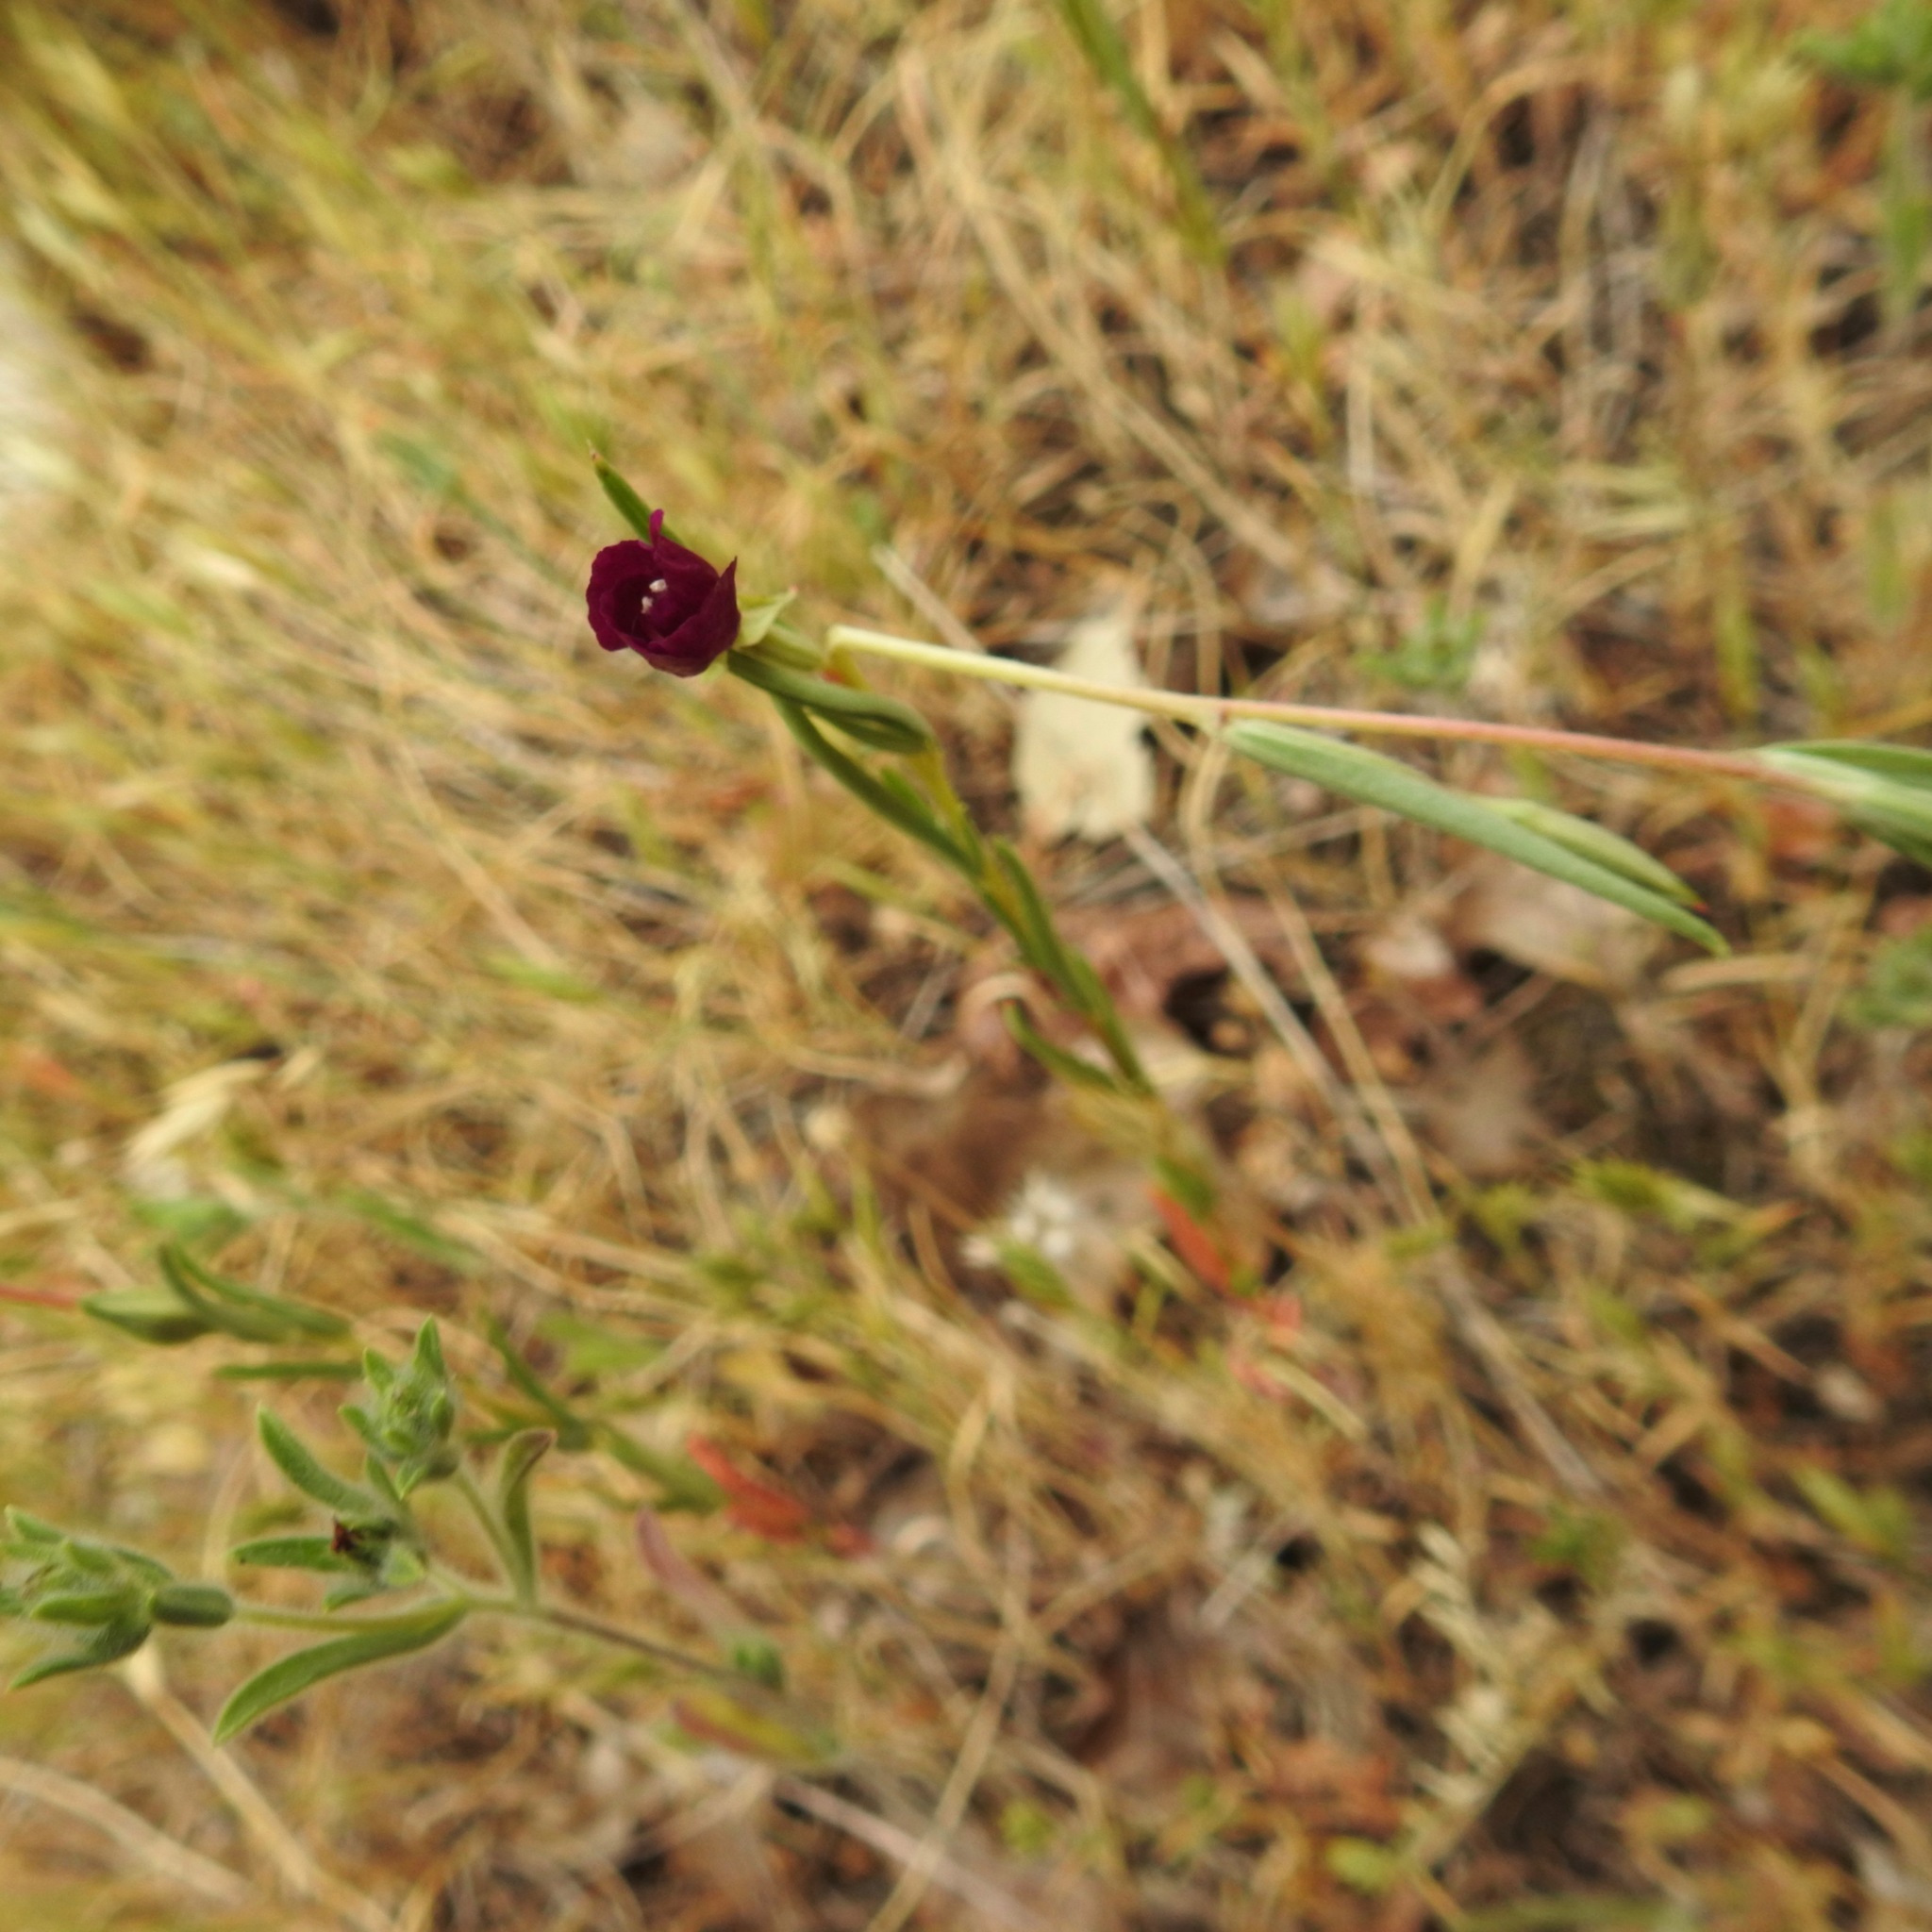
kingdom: Plantae
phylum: Tracheophyta
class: Magnoliopsida
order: Myrtales
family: Onagraceae
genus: Clarkia
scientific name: Clarkia purpurea
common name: Purple clarkia
